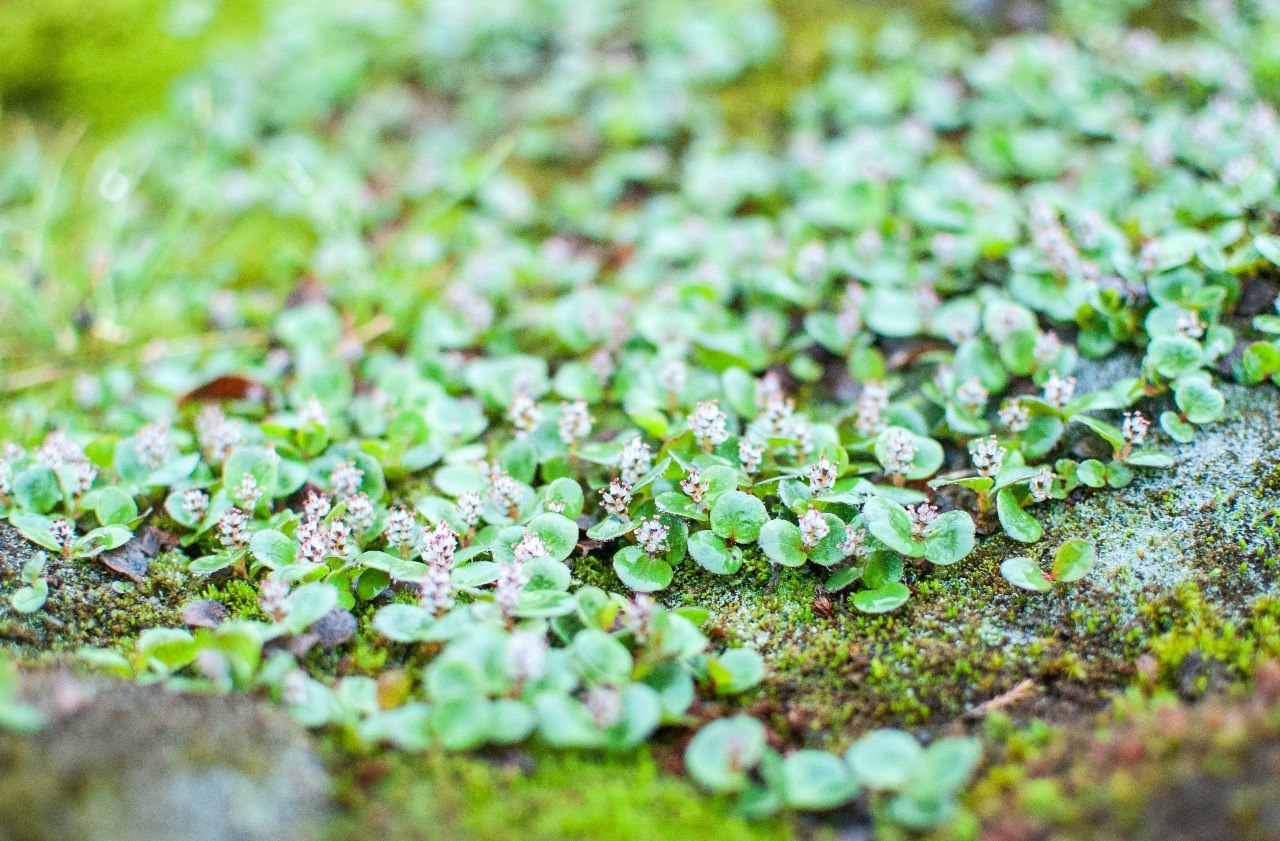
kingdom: Plantae
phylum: Tracheophyta
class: Magnoliopsida
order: Malpighiales
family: Salicaceae
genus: Salix
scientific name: Salix polaris
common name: Polar willow
